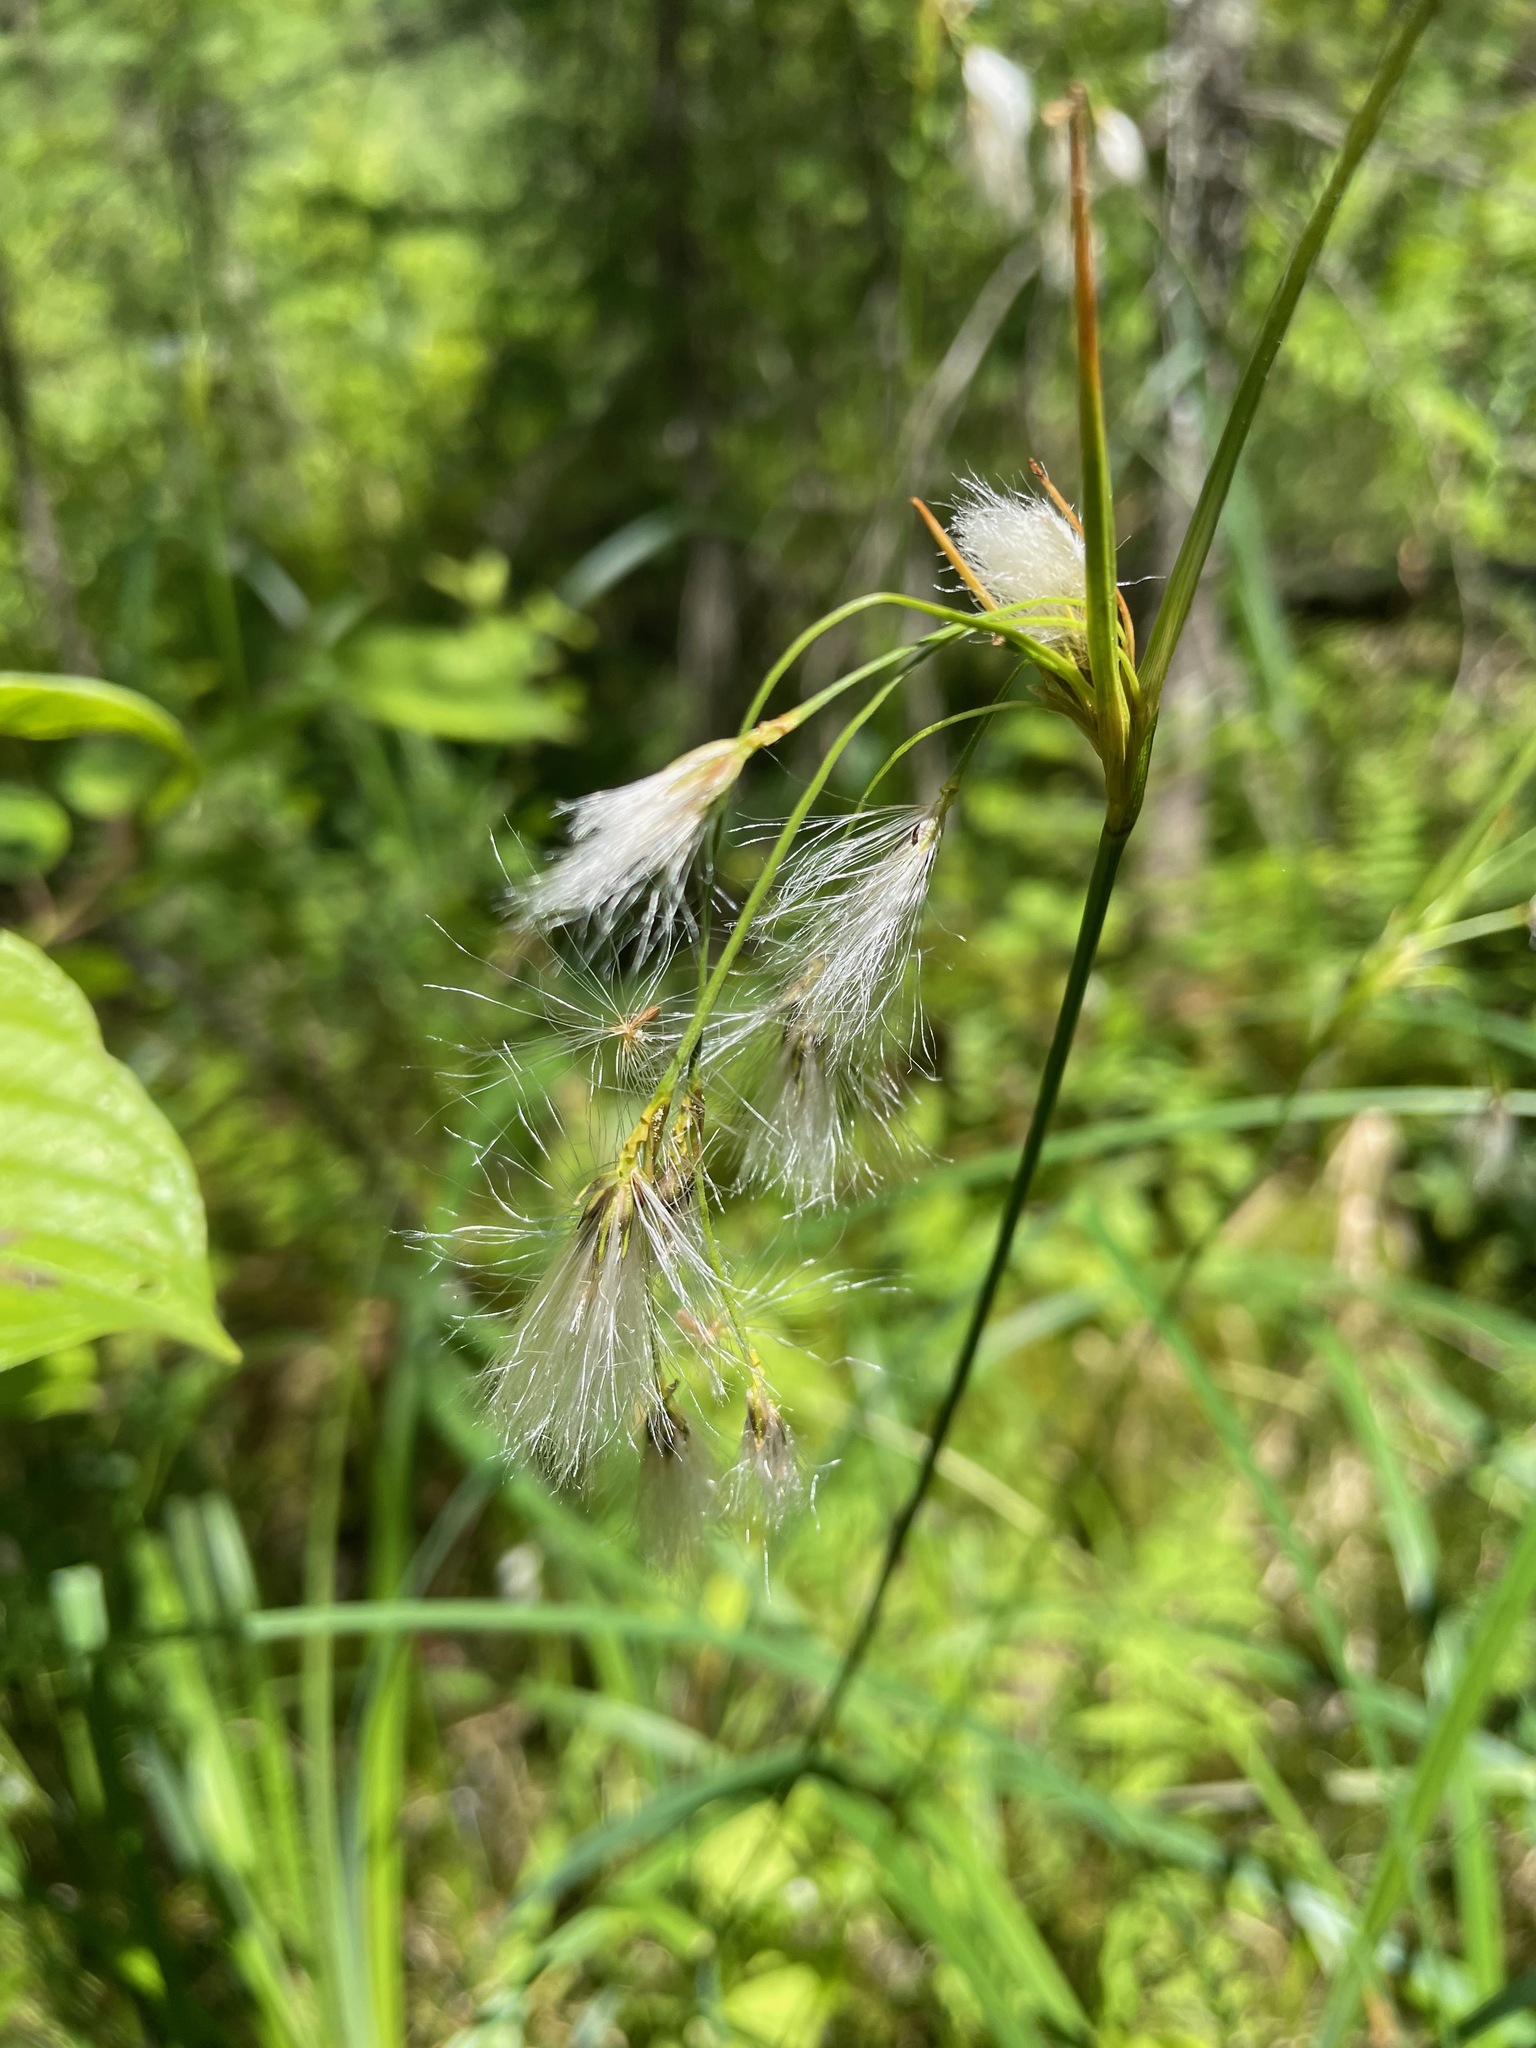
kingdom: Plantae
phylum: Tracheophyta
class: Liliopsida
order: Poales
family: Cyperaceae
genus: Eriophorum
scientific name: Eriophorum viridicarinatum
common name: Green-keeled cottongrass
